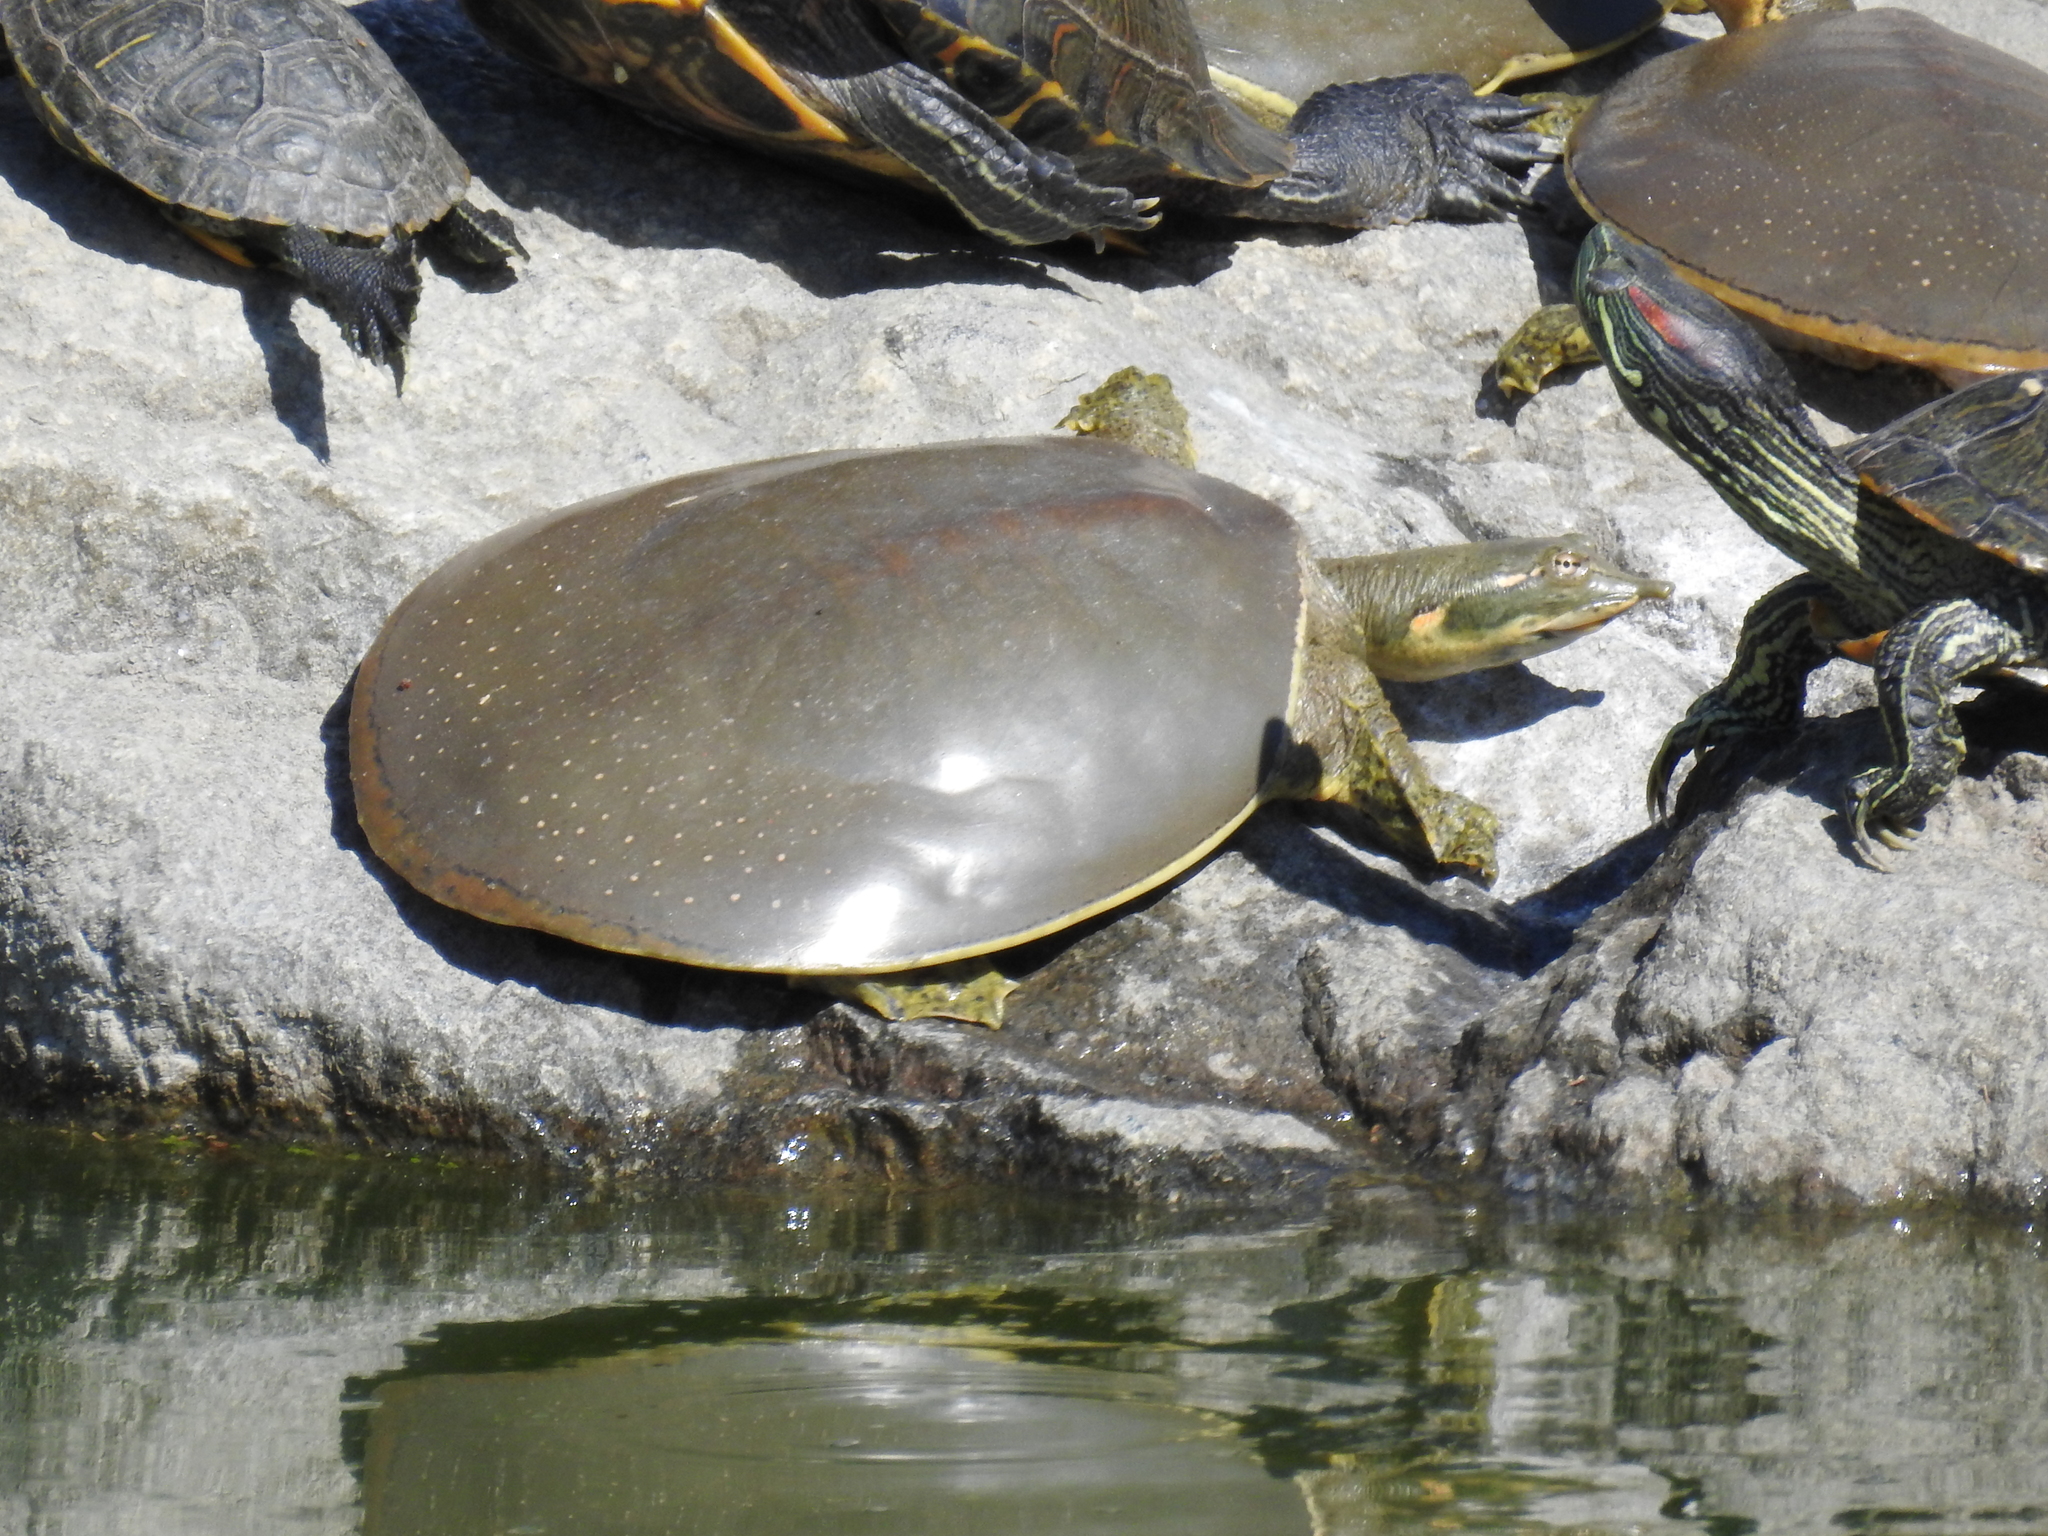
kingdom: Animalia
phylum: Chordata
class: Testudines
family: Trionychidae
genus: Apalone
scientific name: Apalone spinifera
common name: Spiny softshell turtle
